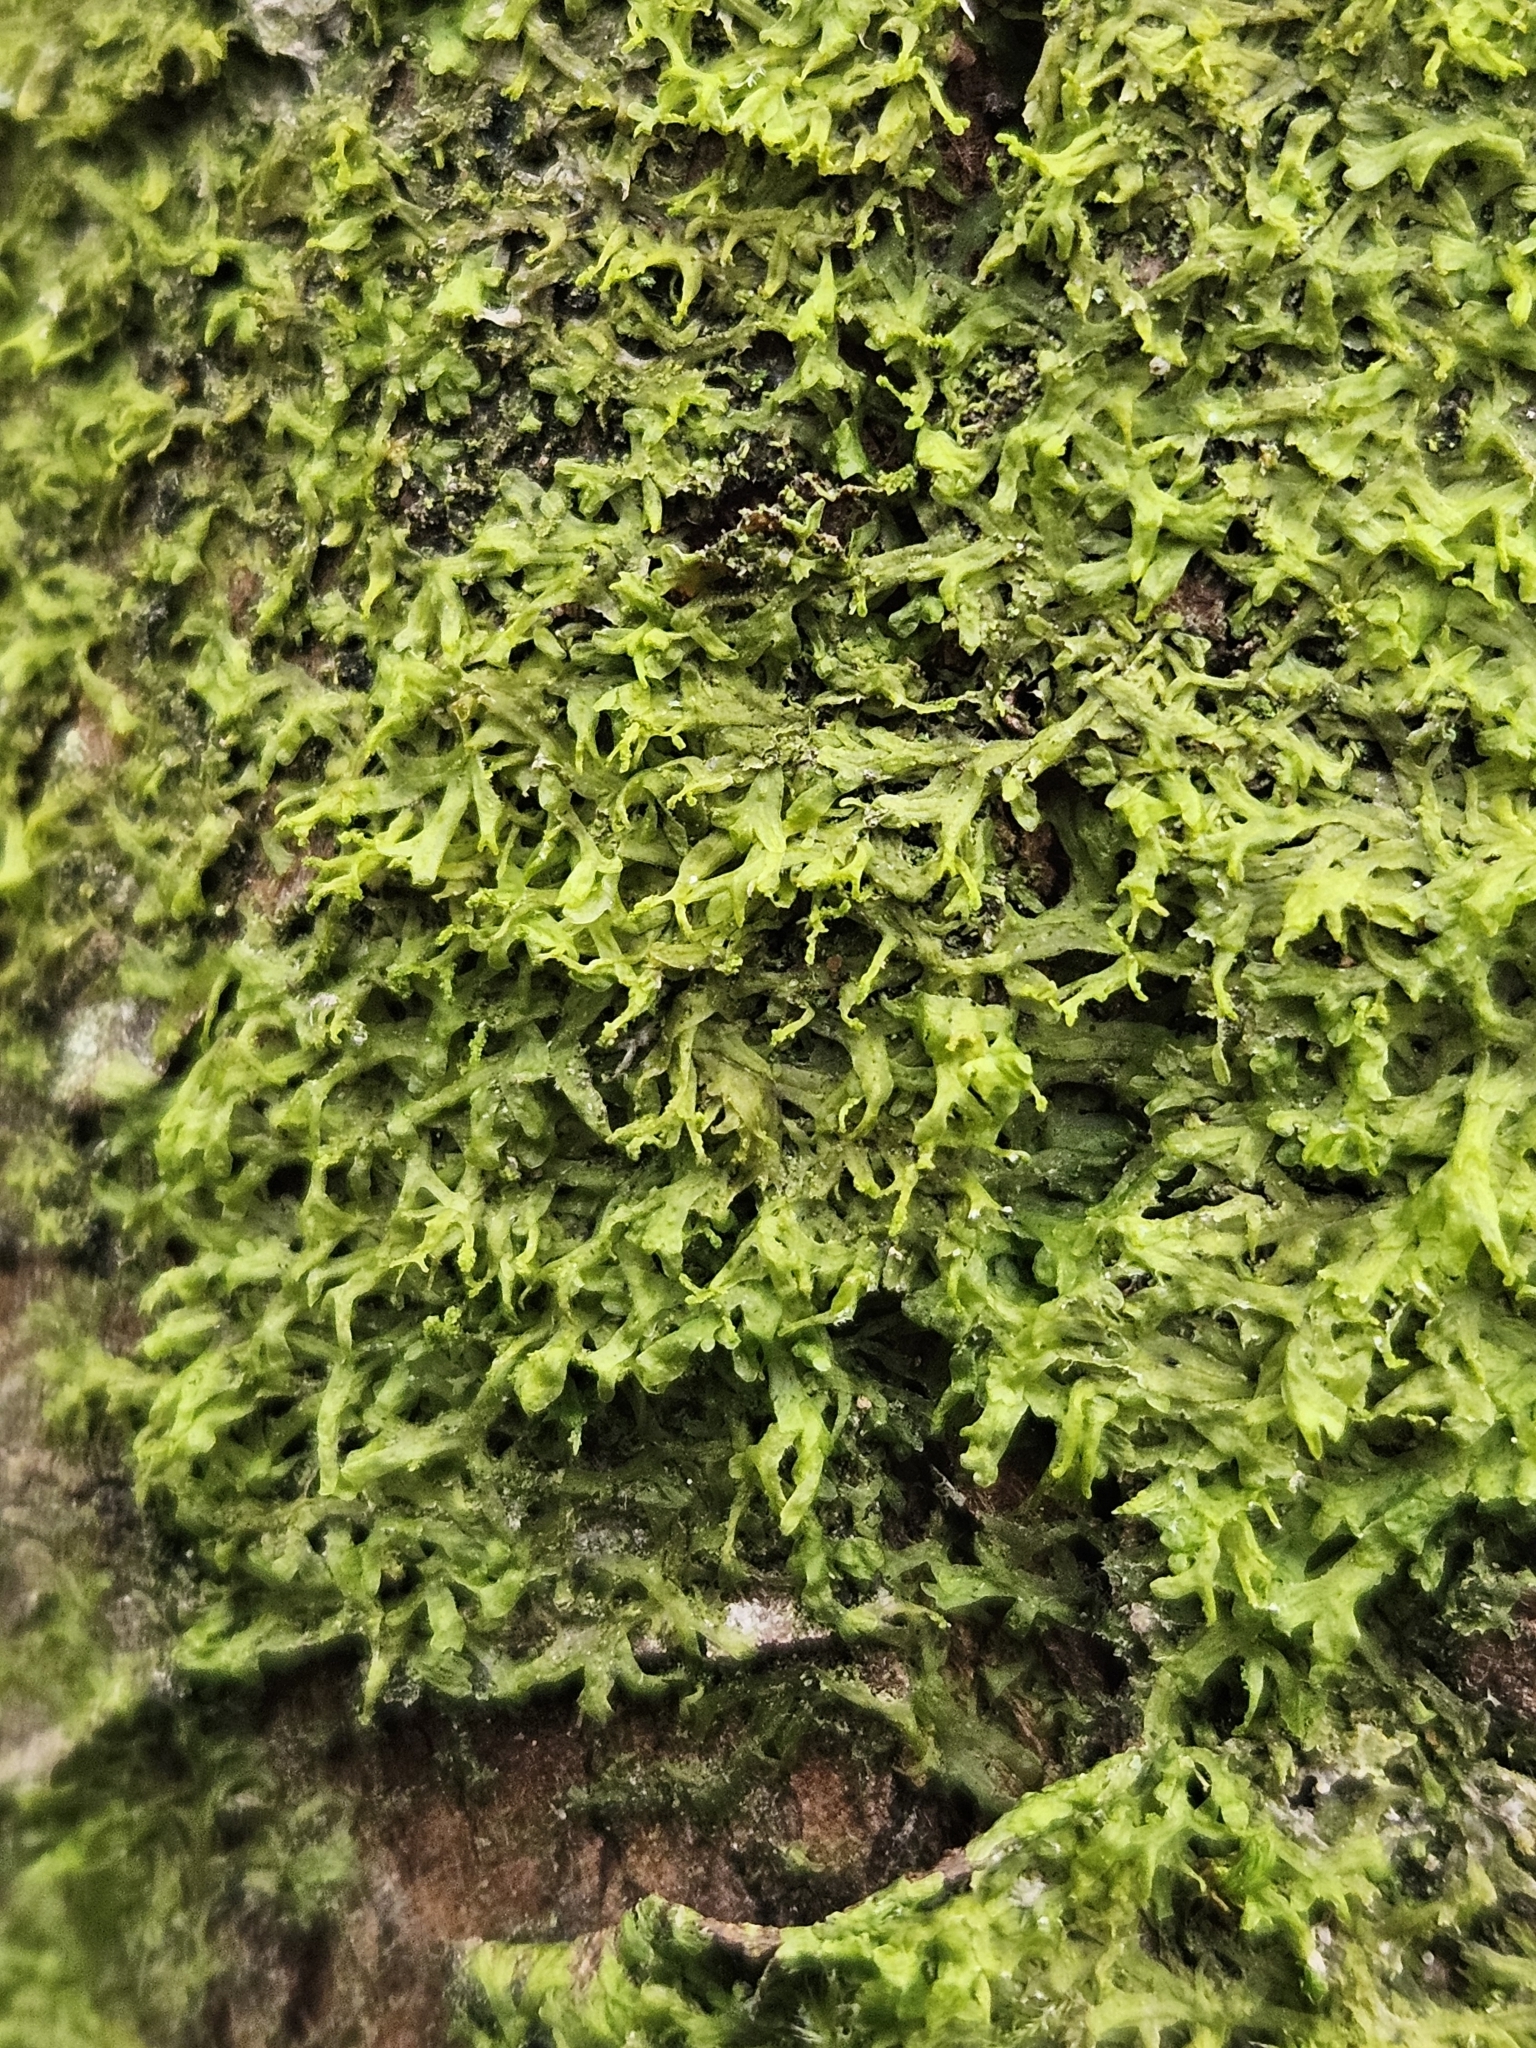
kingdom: Plantae
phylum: Marchantiophyta
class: Jungermanniopsida
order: Metzgeriales
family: Metzgeriaceae
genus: Metzgeria
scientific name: Metzgeria violacea
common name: Blueish veilwort
